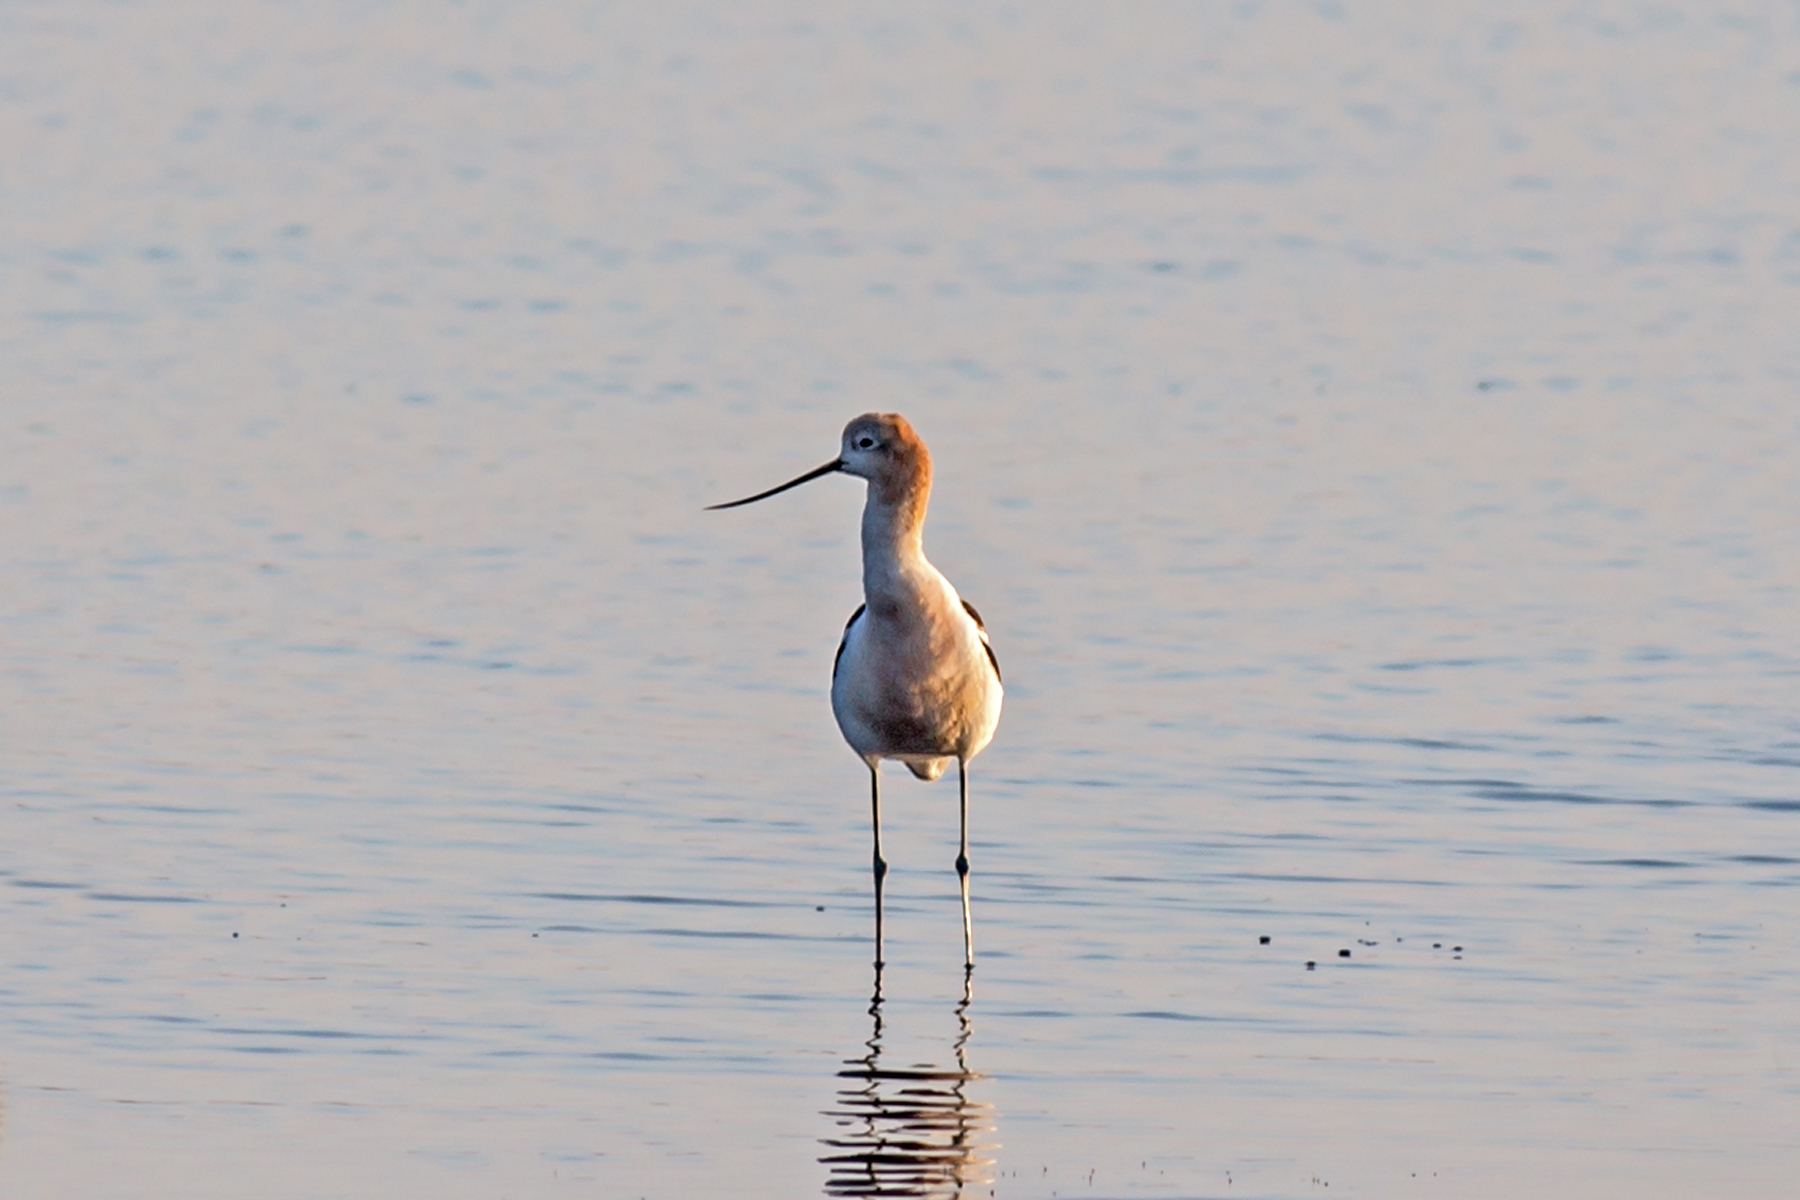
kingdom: Animalia
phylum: Chordata
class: Aves
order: Charadriiformes
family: Recurvirostridae
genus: Recurvirostra
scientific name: Recurvirostra americana
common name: American avocet
